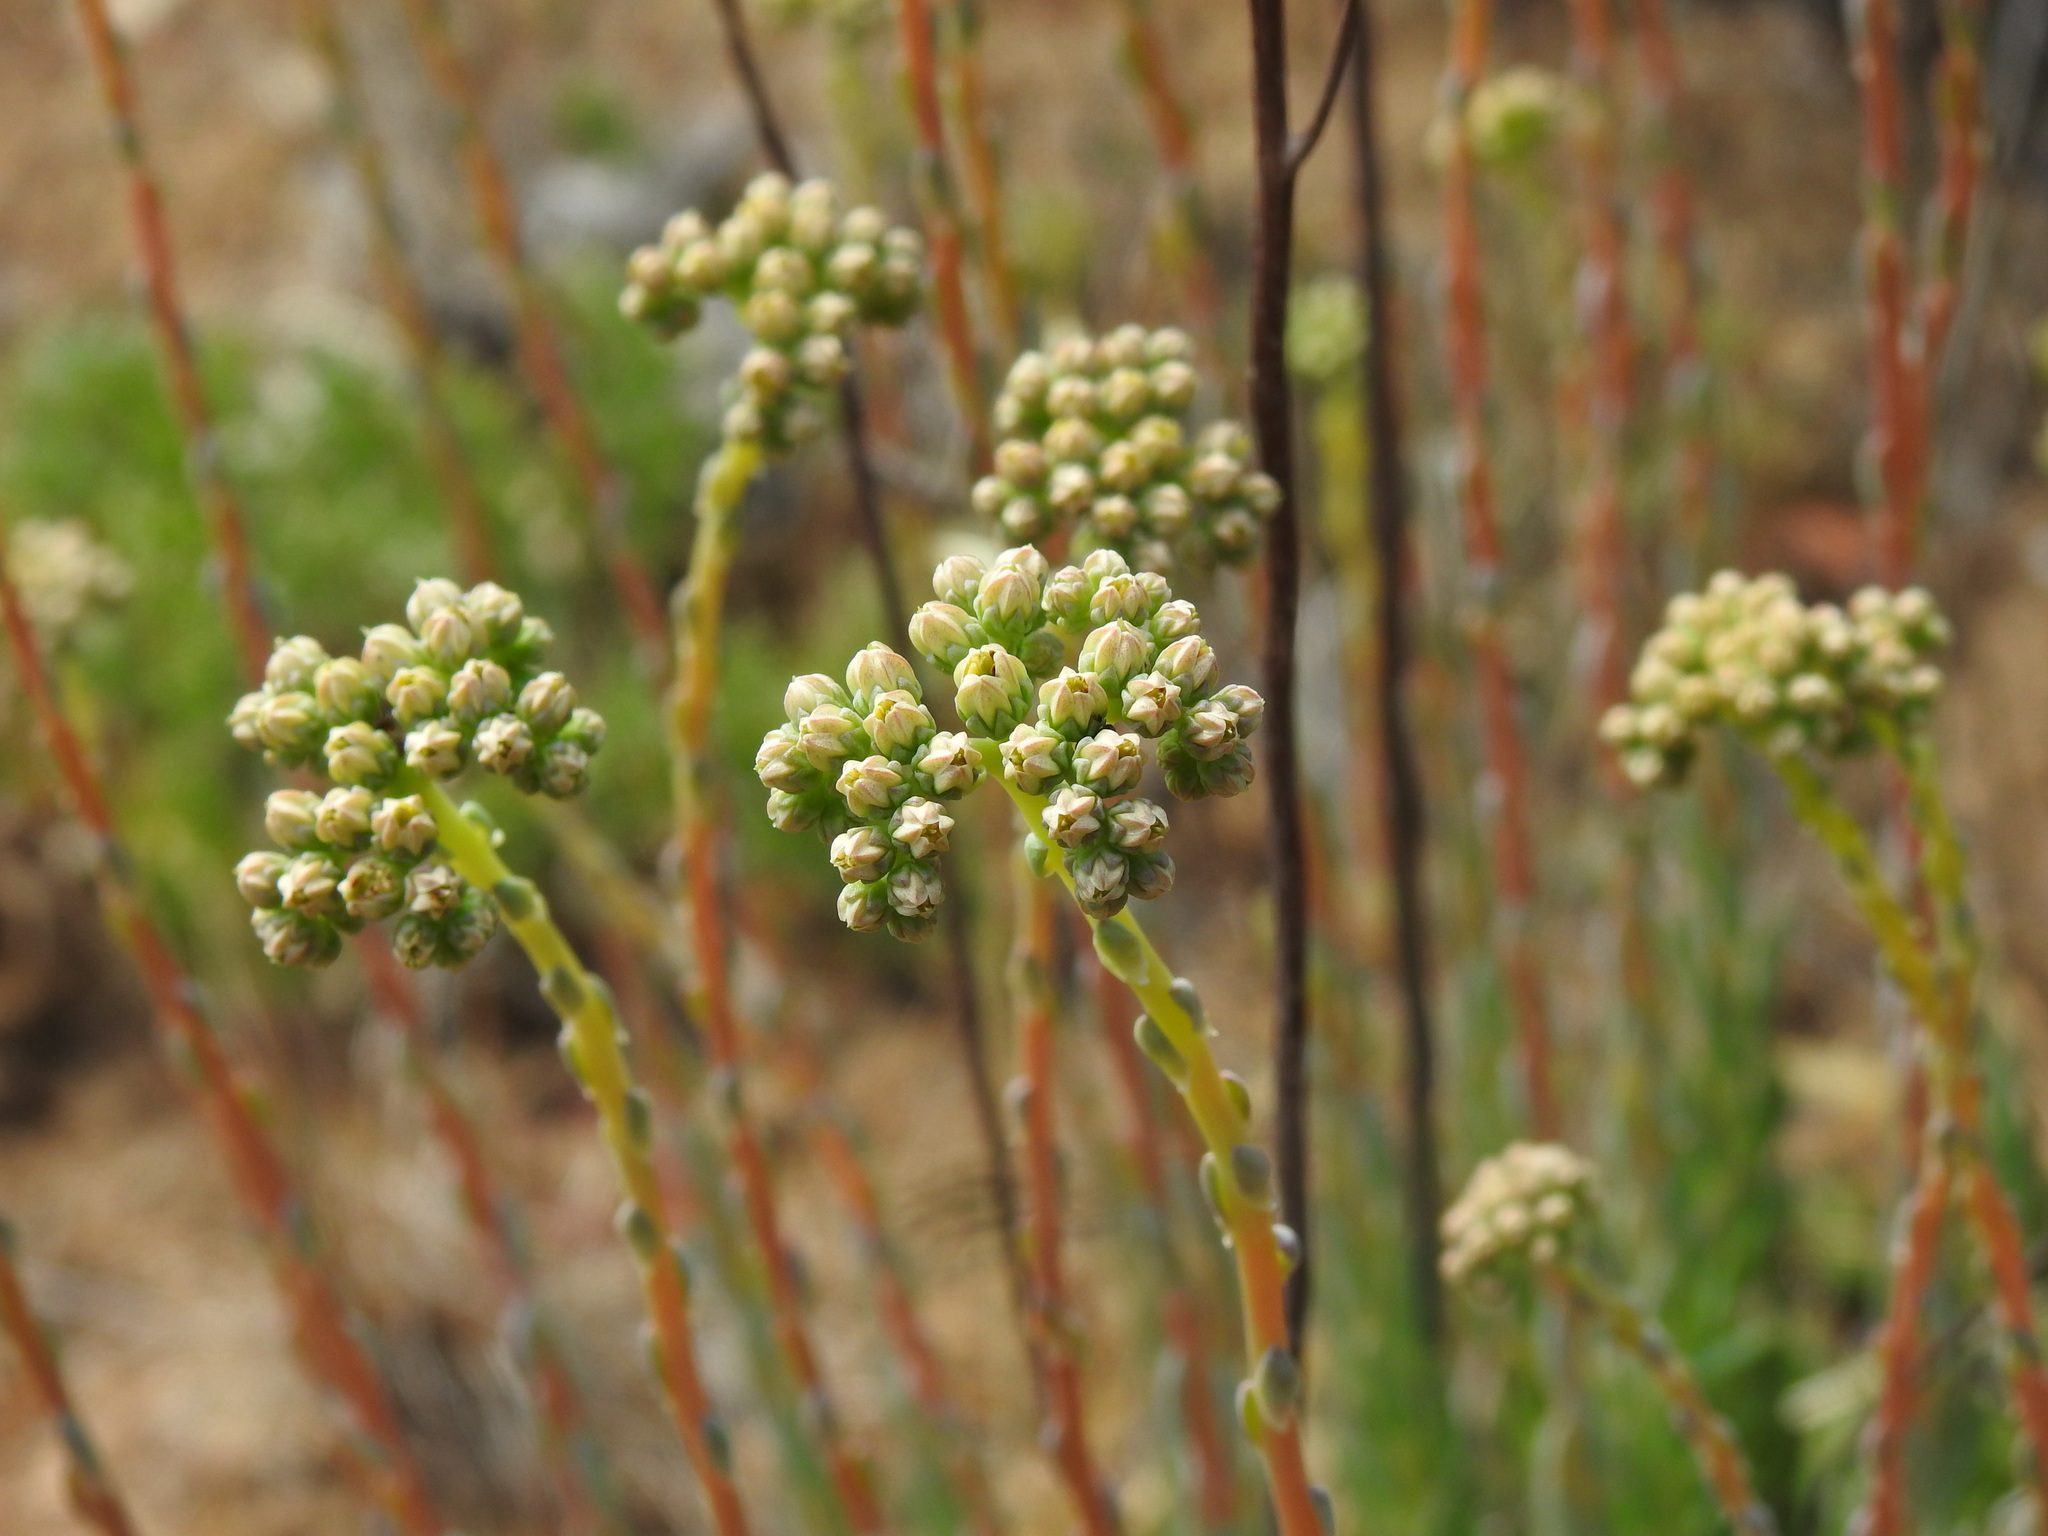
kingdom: Plantae
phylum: Tracheophyta
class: Magnoliopsida
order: Saxifragales
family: Crassulaceae
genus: Petrosedum
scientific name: Petrosedum sediforme
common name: Pale stonecrop
